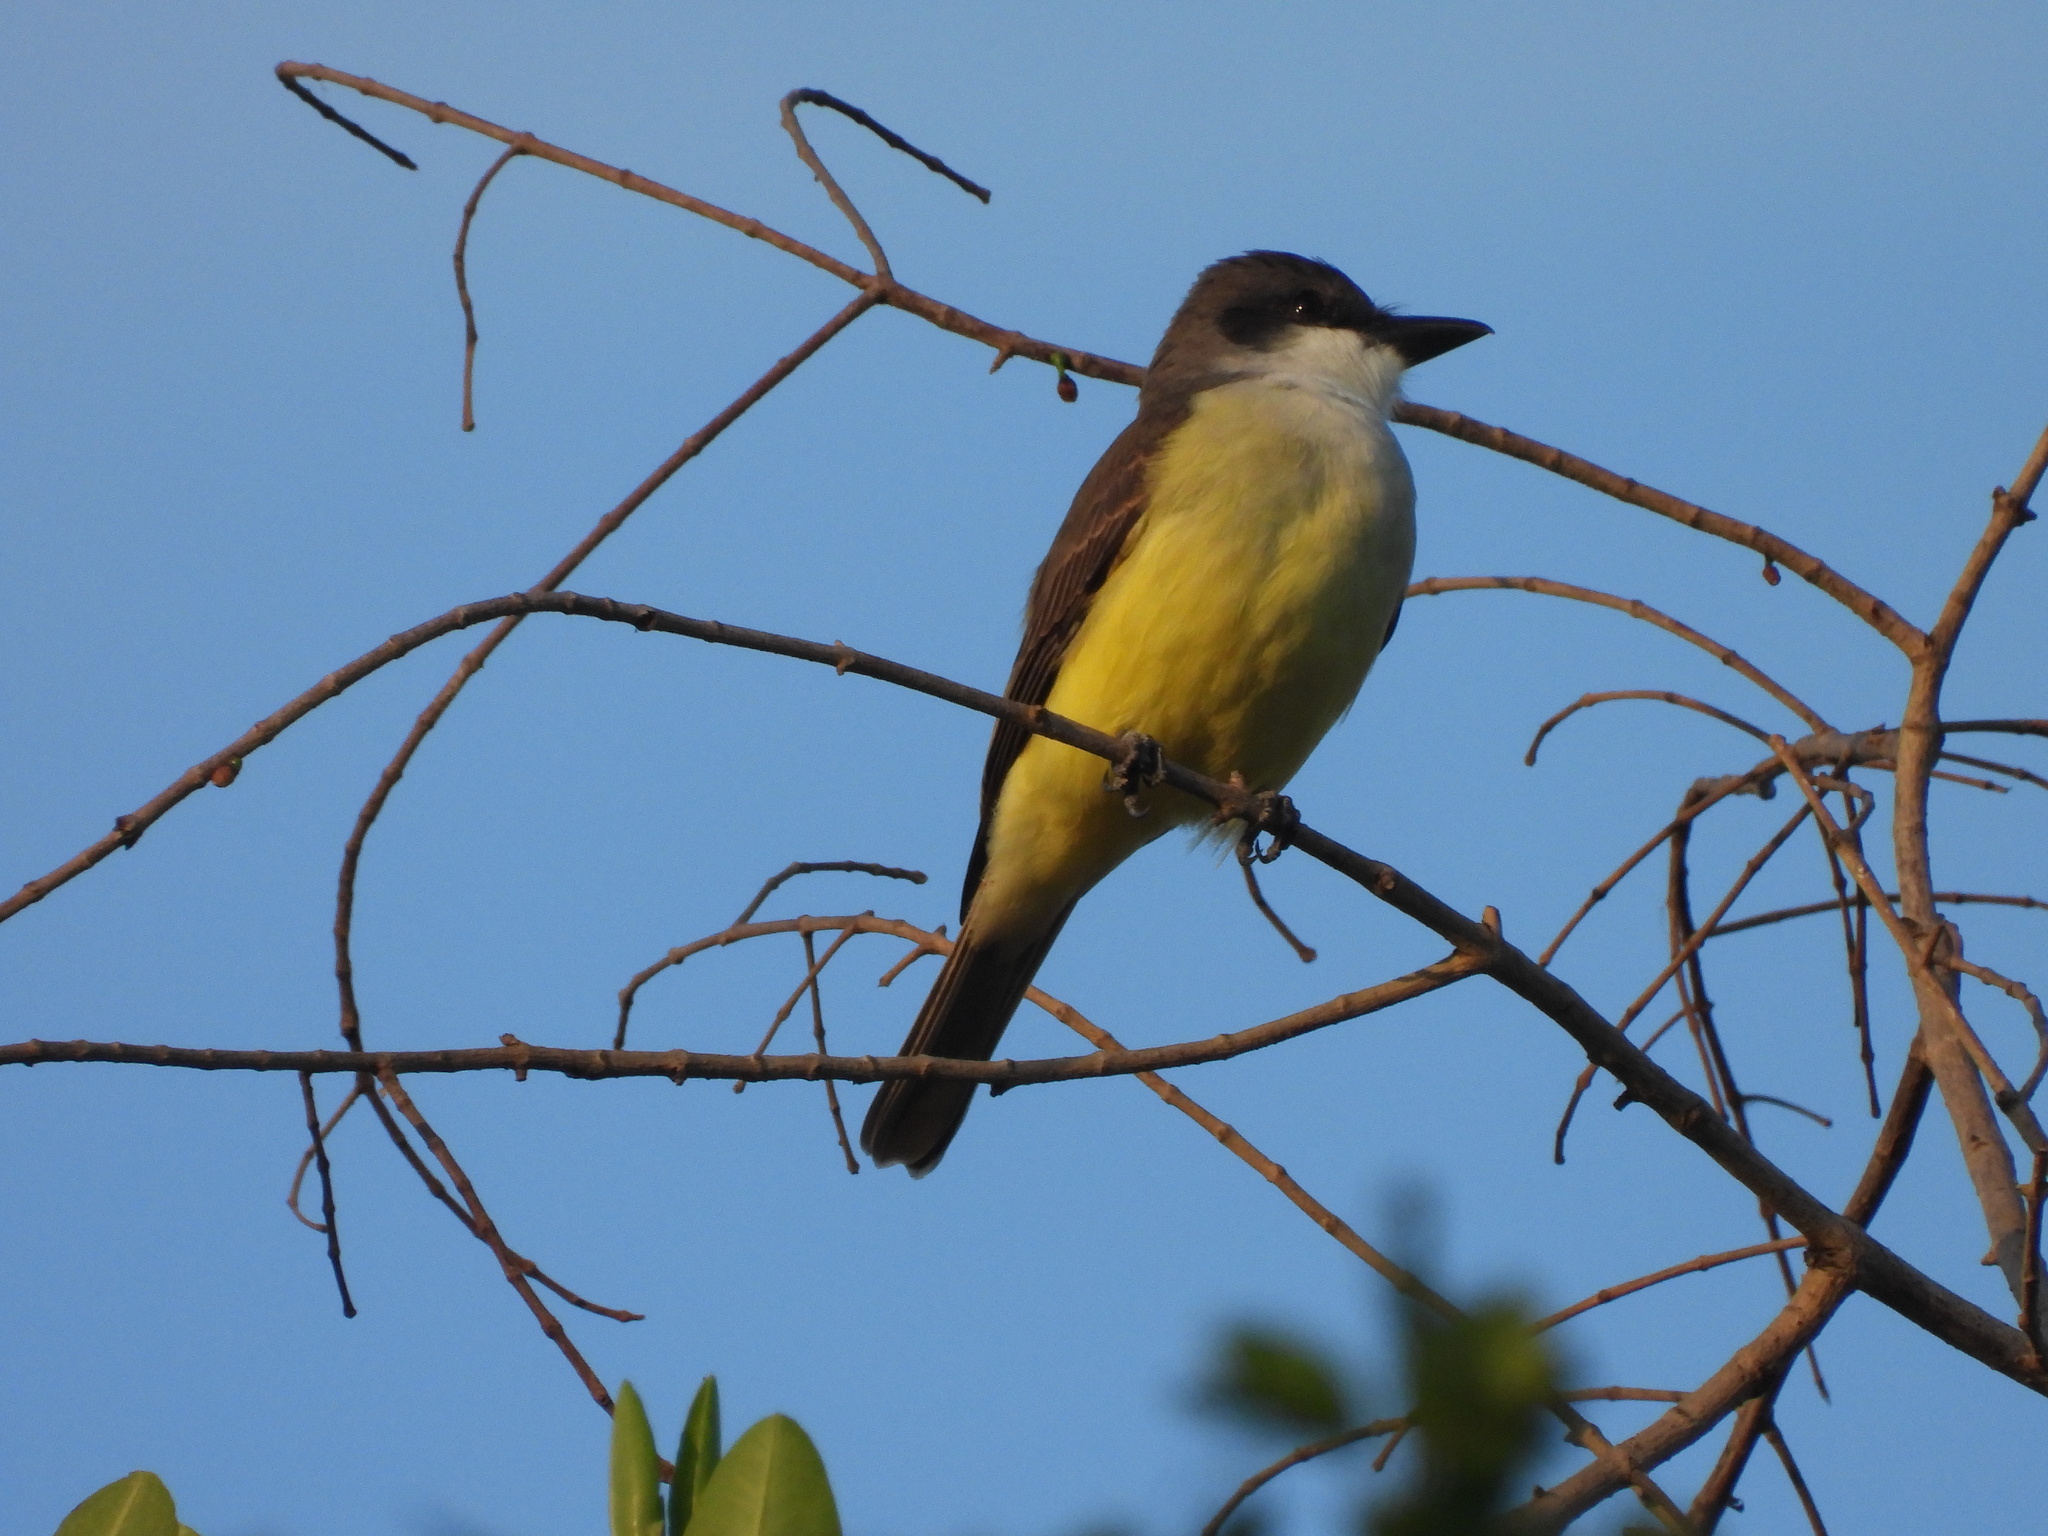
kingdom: Animalia
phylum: Chordata
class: Aves
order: Passeriformes
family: Tyrannidae
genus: Tyrannus
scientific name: Tyrannus crassirostris
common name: Thick-billed kingbird
